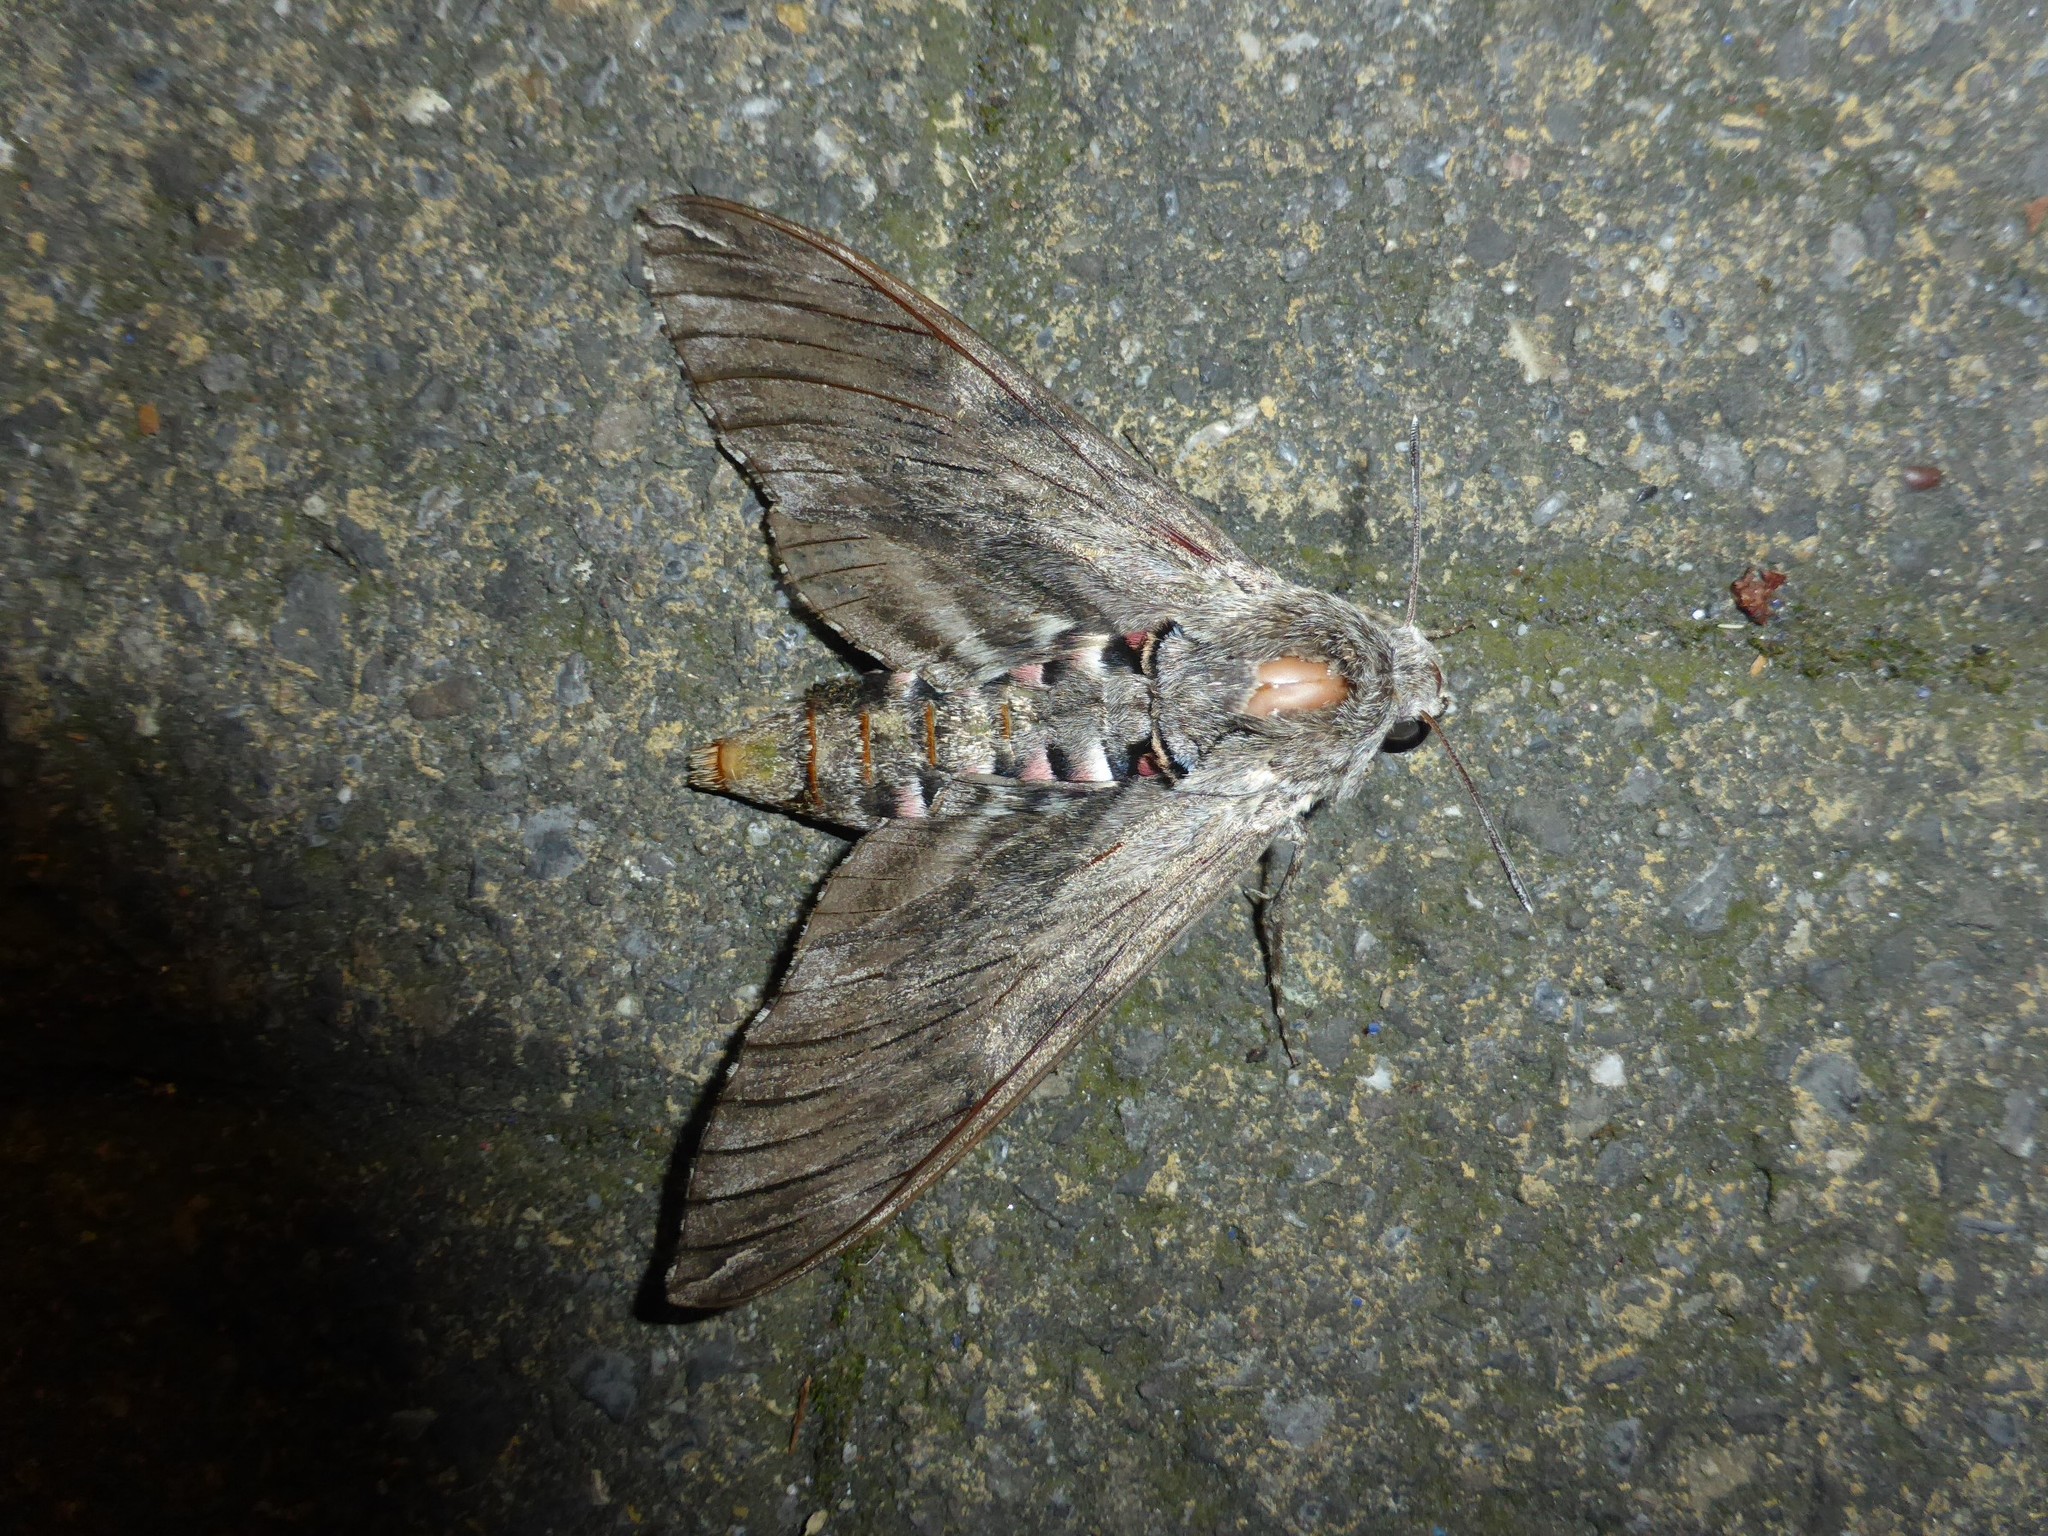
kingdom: Animalia
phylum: Arthropoda
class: Insecta
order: Lepidoptera
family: Sphingidae
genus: Agrius
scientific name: Agrius convolvuli
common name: Convolvulus hawkmoth
